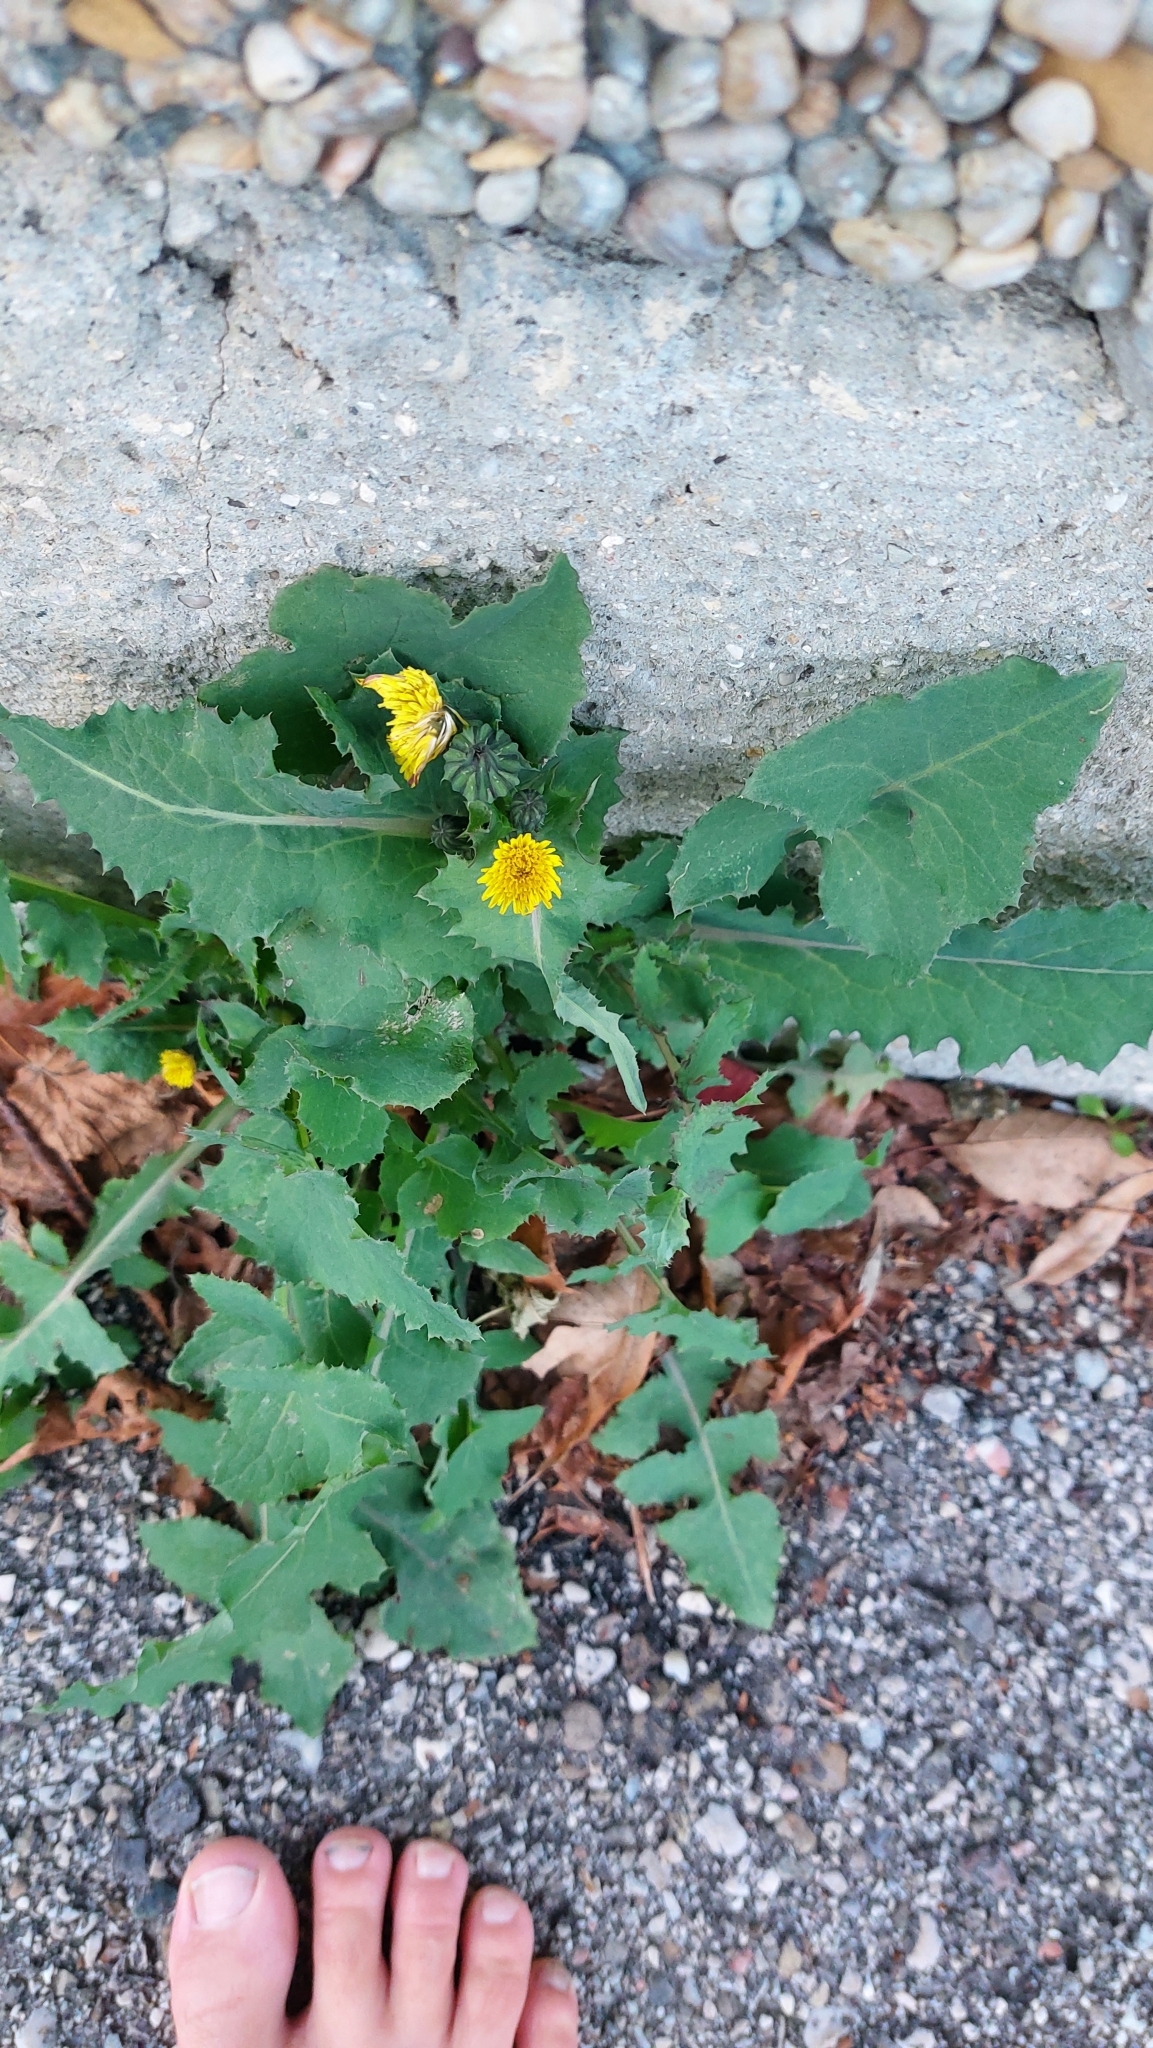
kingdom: Plantae
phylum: Tracheophyta
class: Magnoliopsida
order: Asterales
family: Asteraceae
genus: Sonchus
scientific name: Sonchus oleraceus
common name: Common sowthistle
